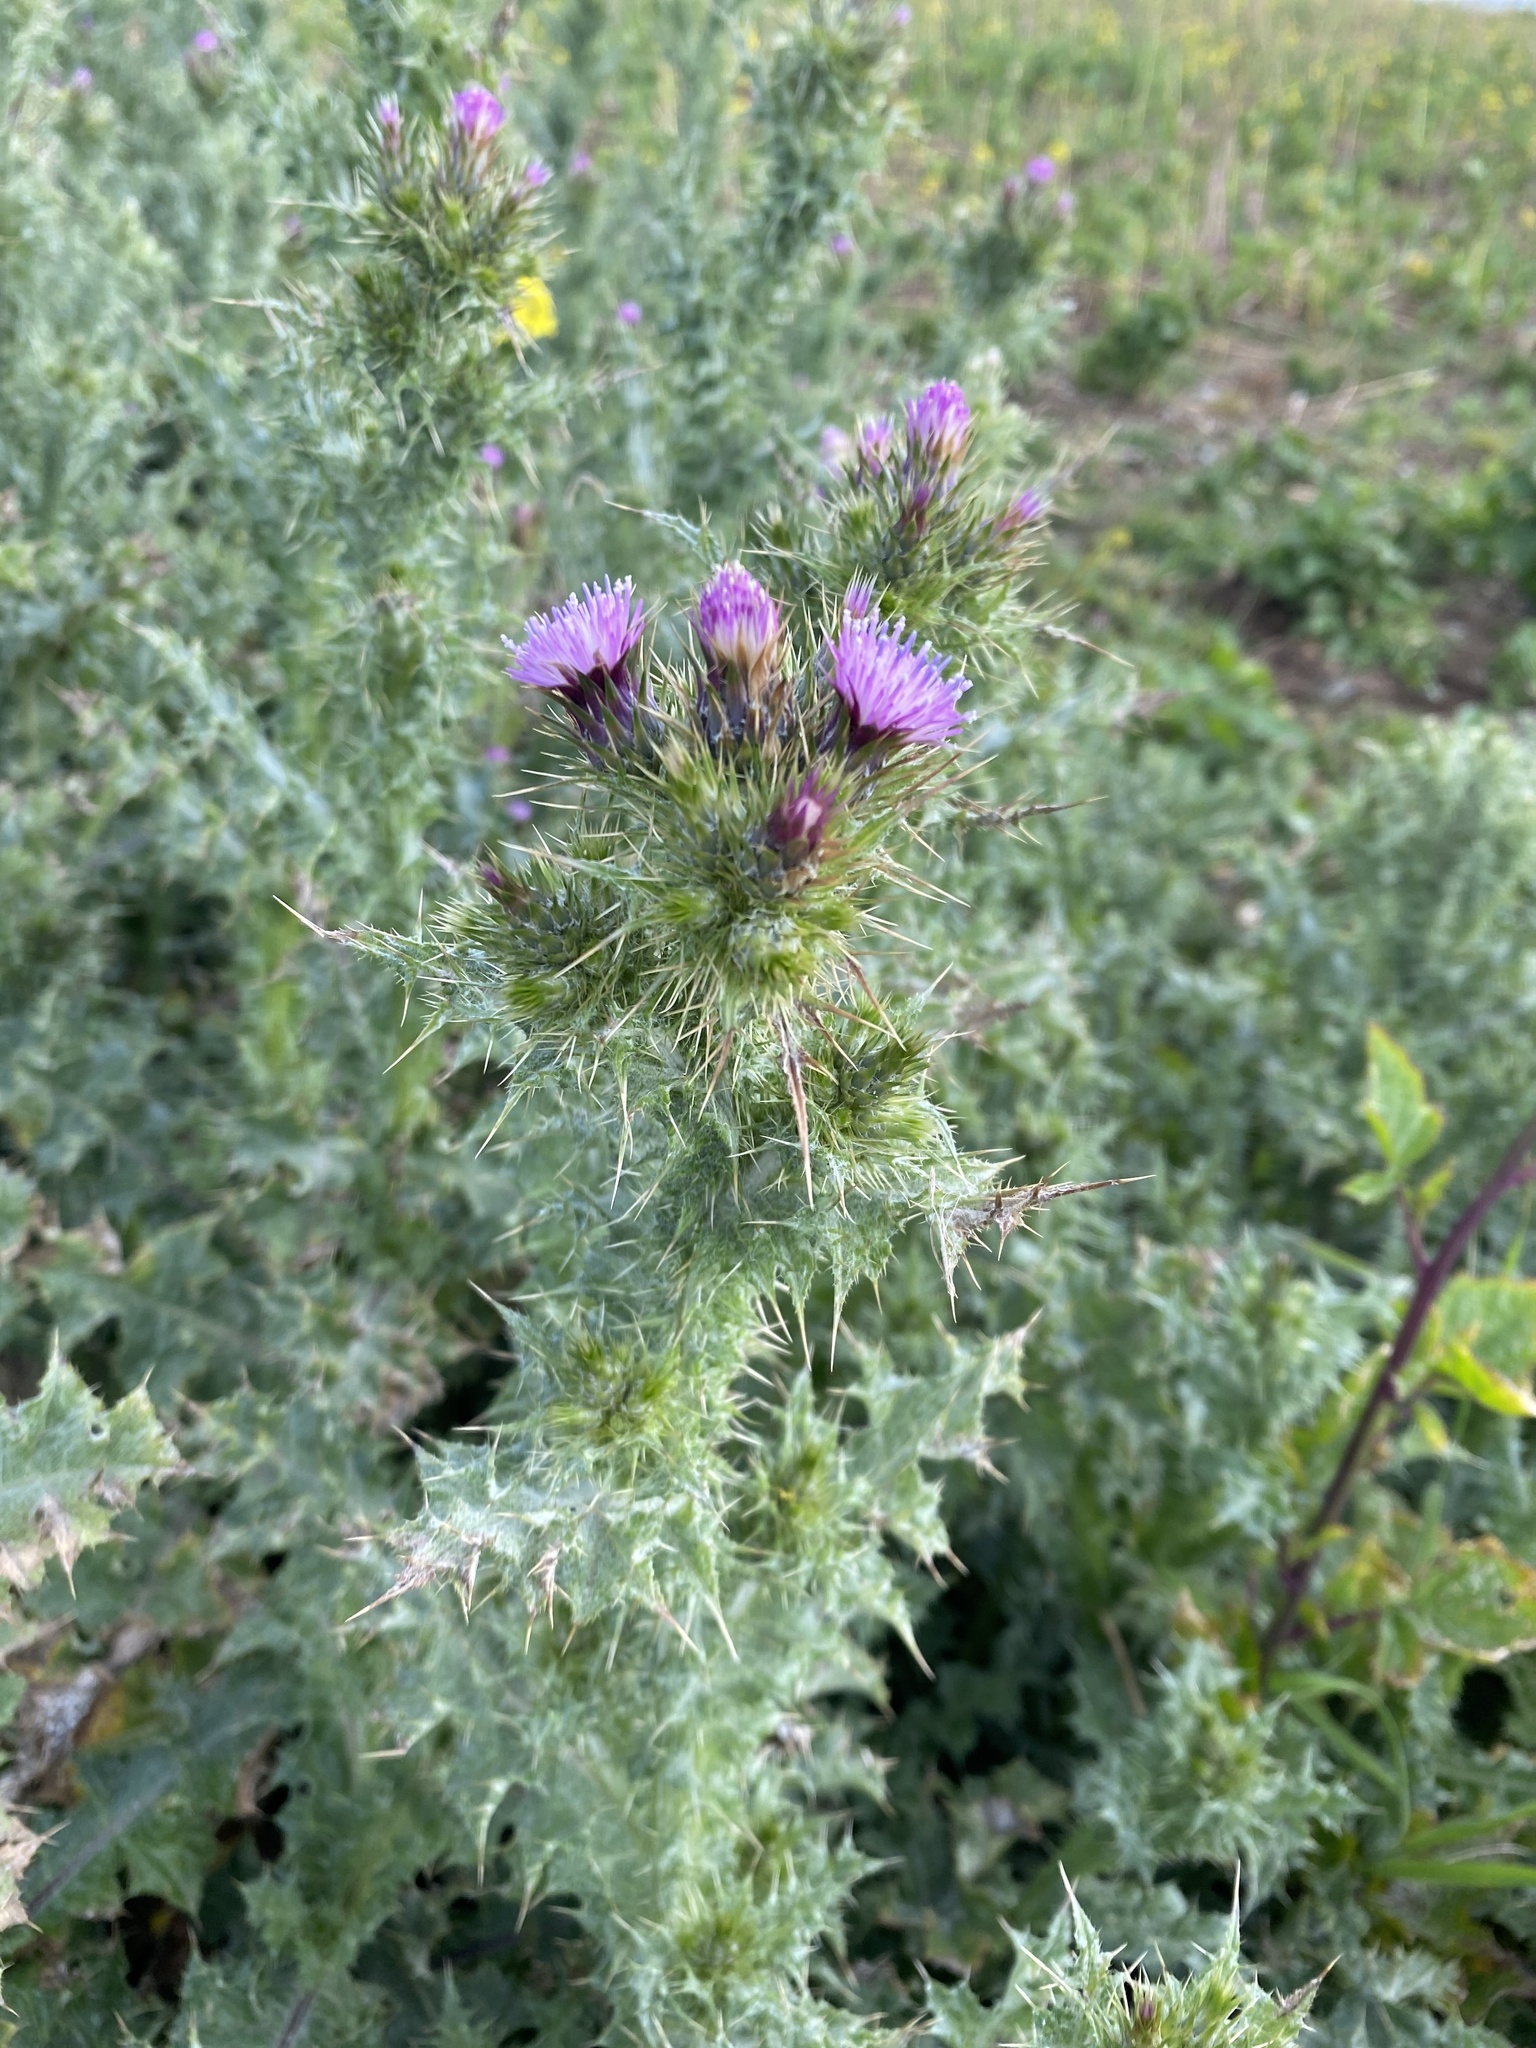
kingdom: Plantae
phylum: Tracheophyta
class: Magnoliopsida
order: Asterales
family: Asteraceae
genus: Carduus
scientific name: Carduus tenuiflorus
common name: Slender thistle
